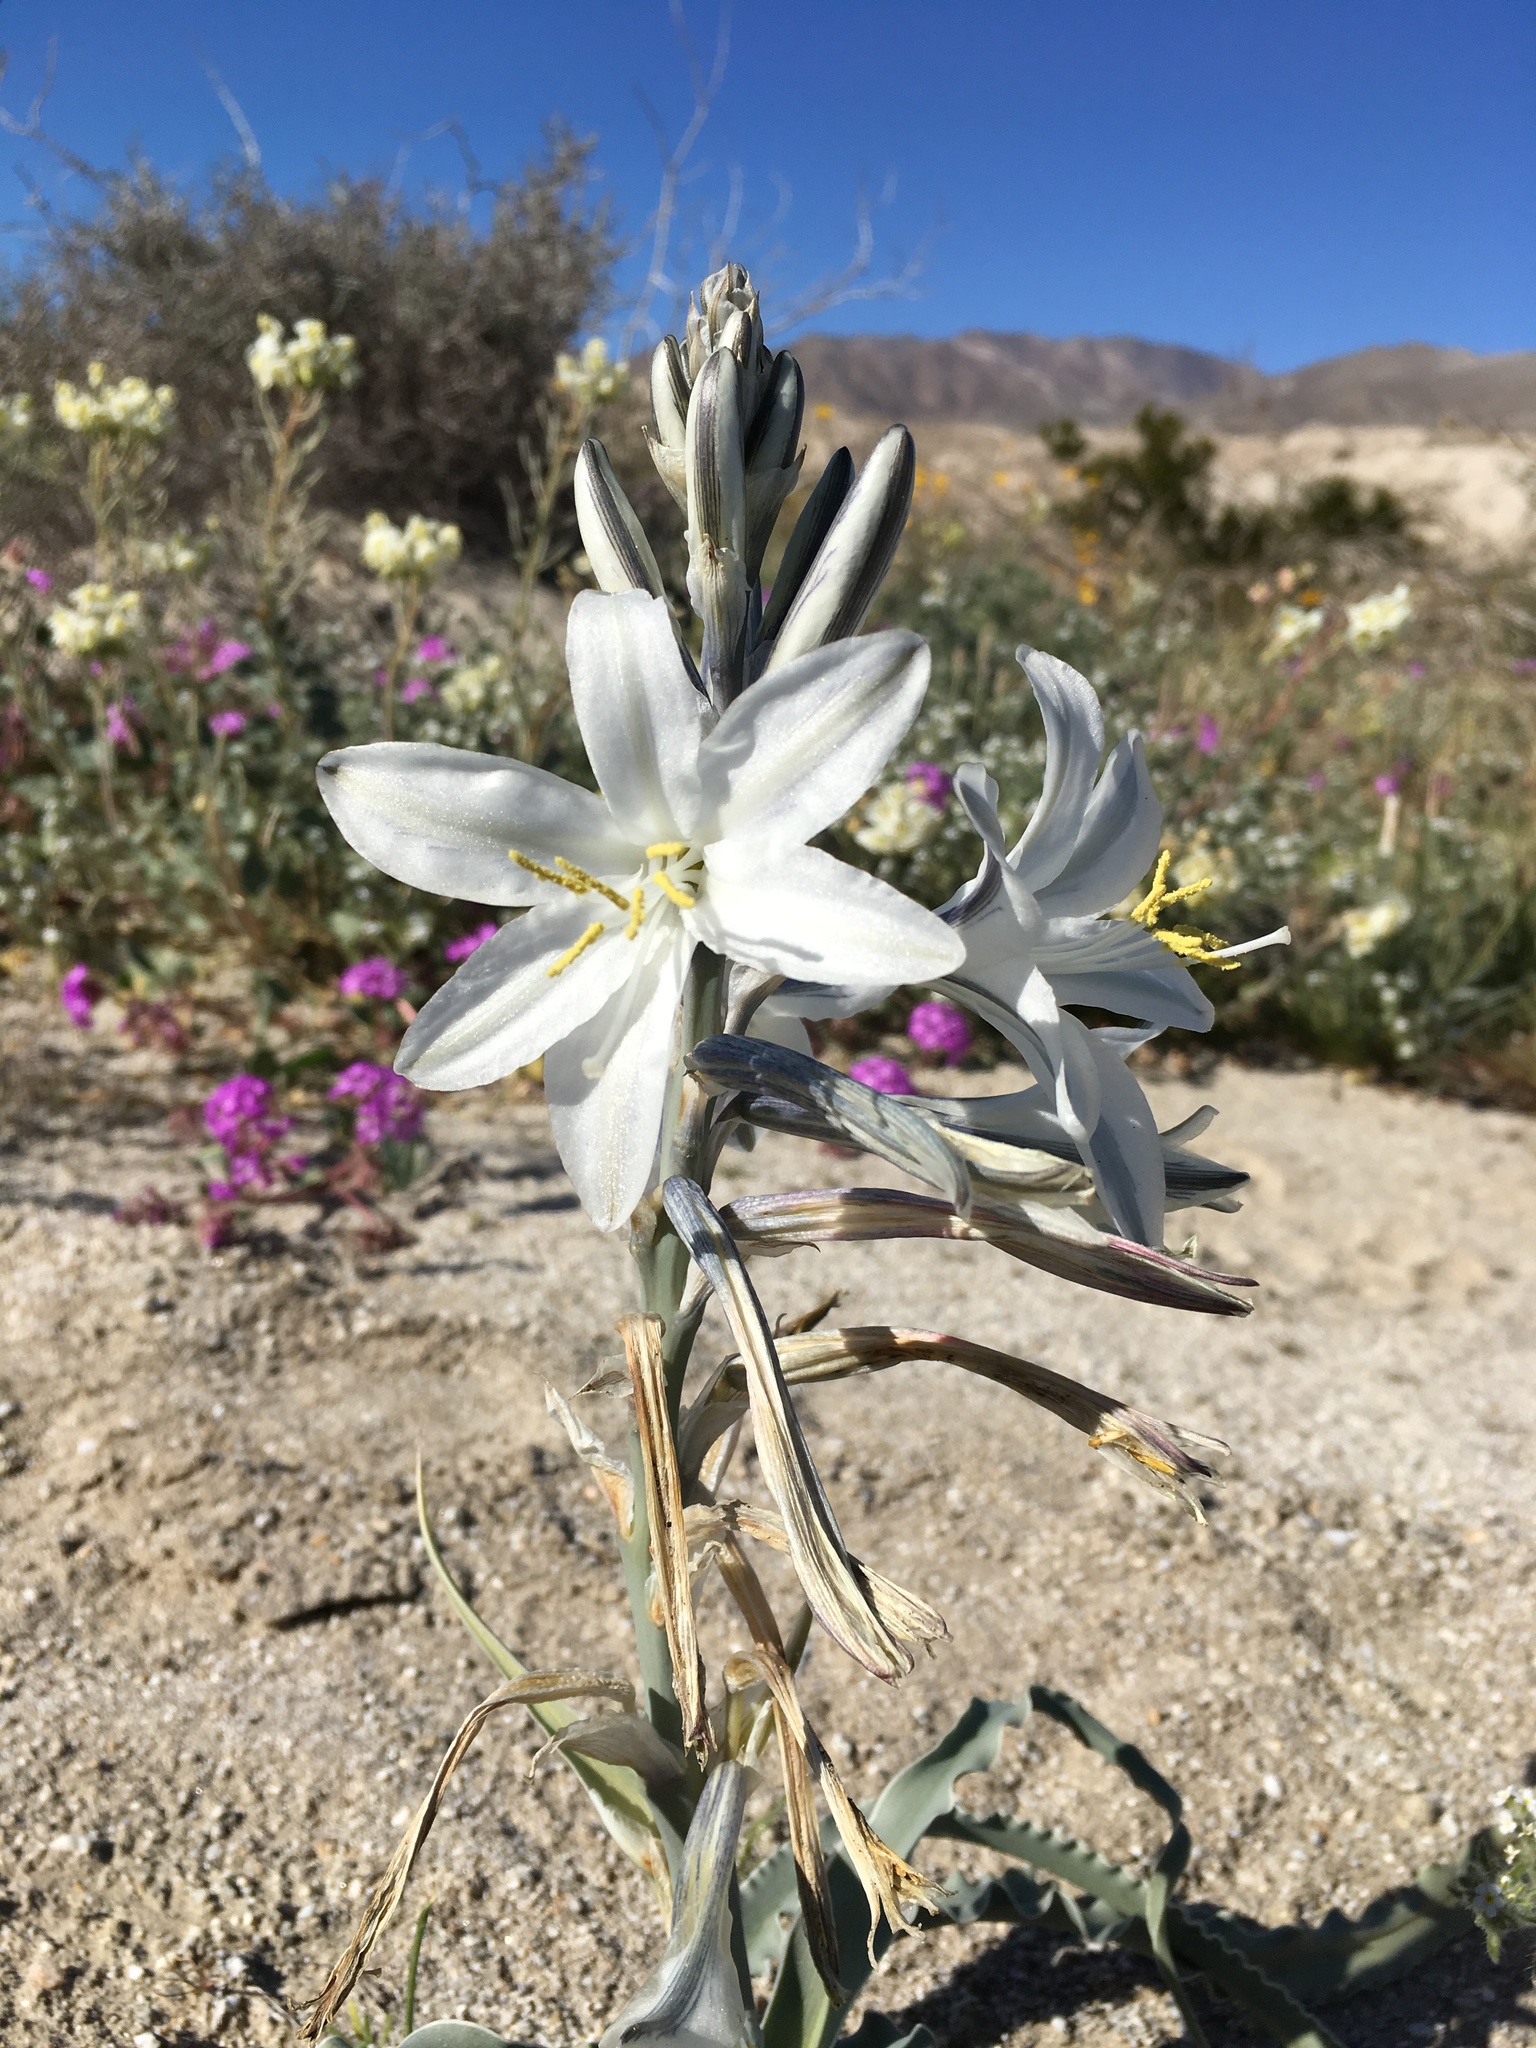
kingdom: Plantae
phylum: Tracheophyta
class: Liliopsida
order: Asparagales
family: Asparagaceae
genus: Hesperocallis
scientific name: Hesperocallis undulata
